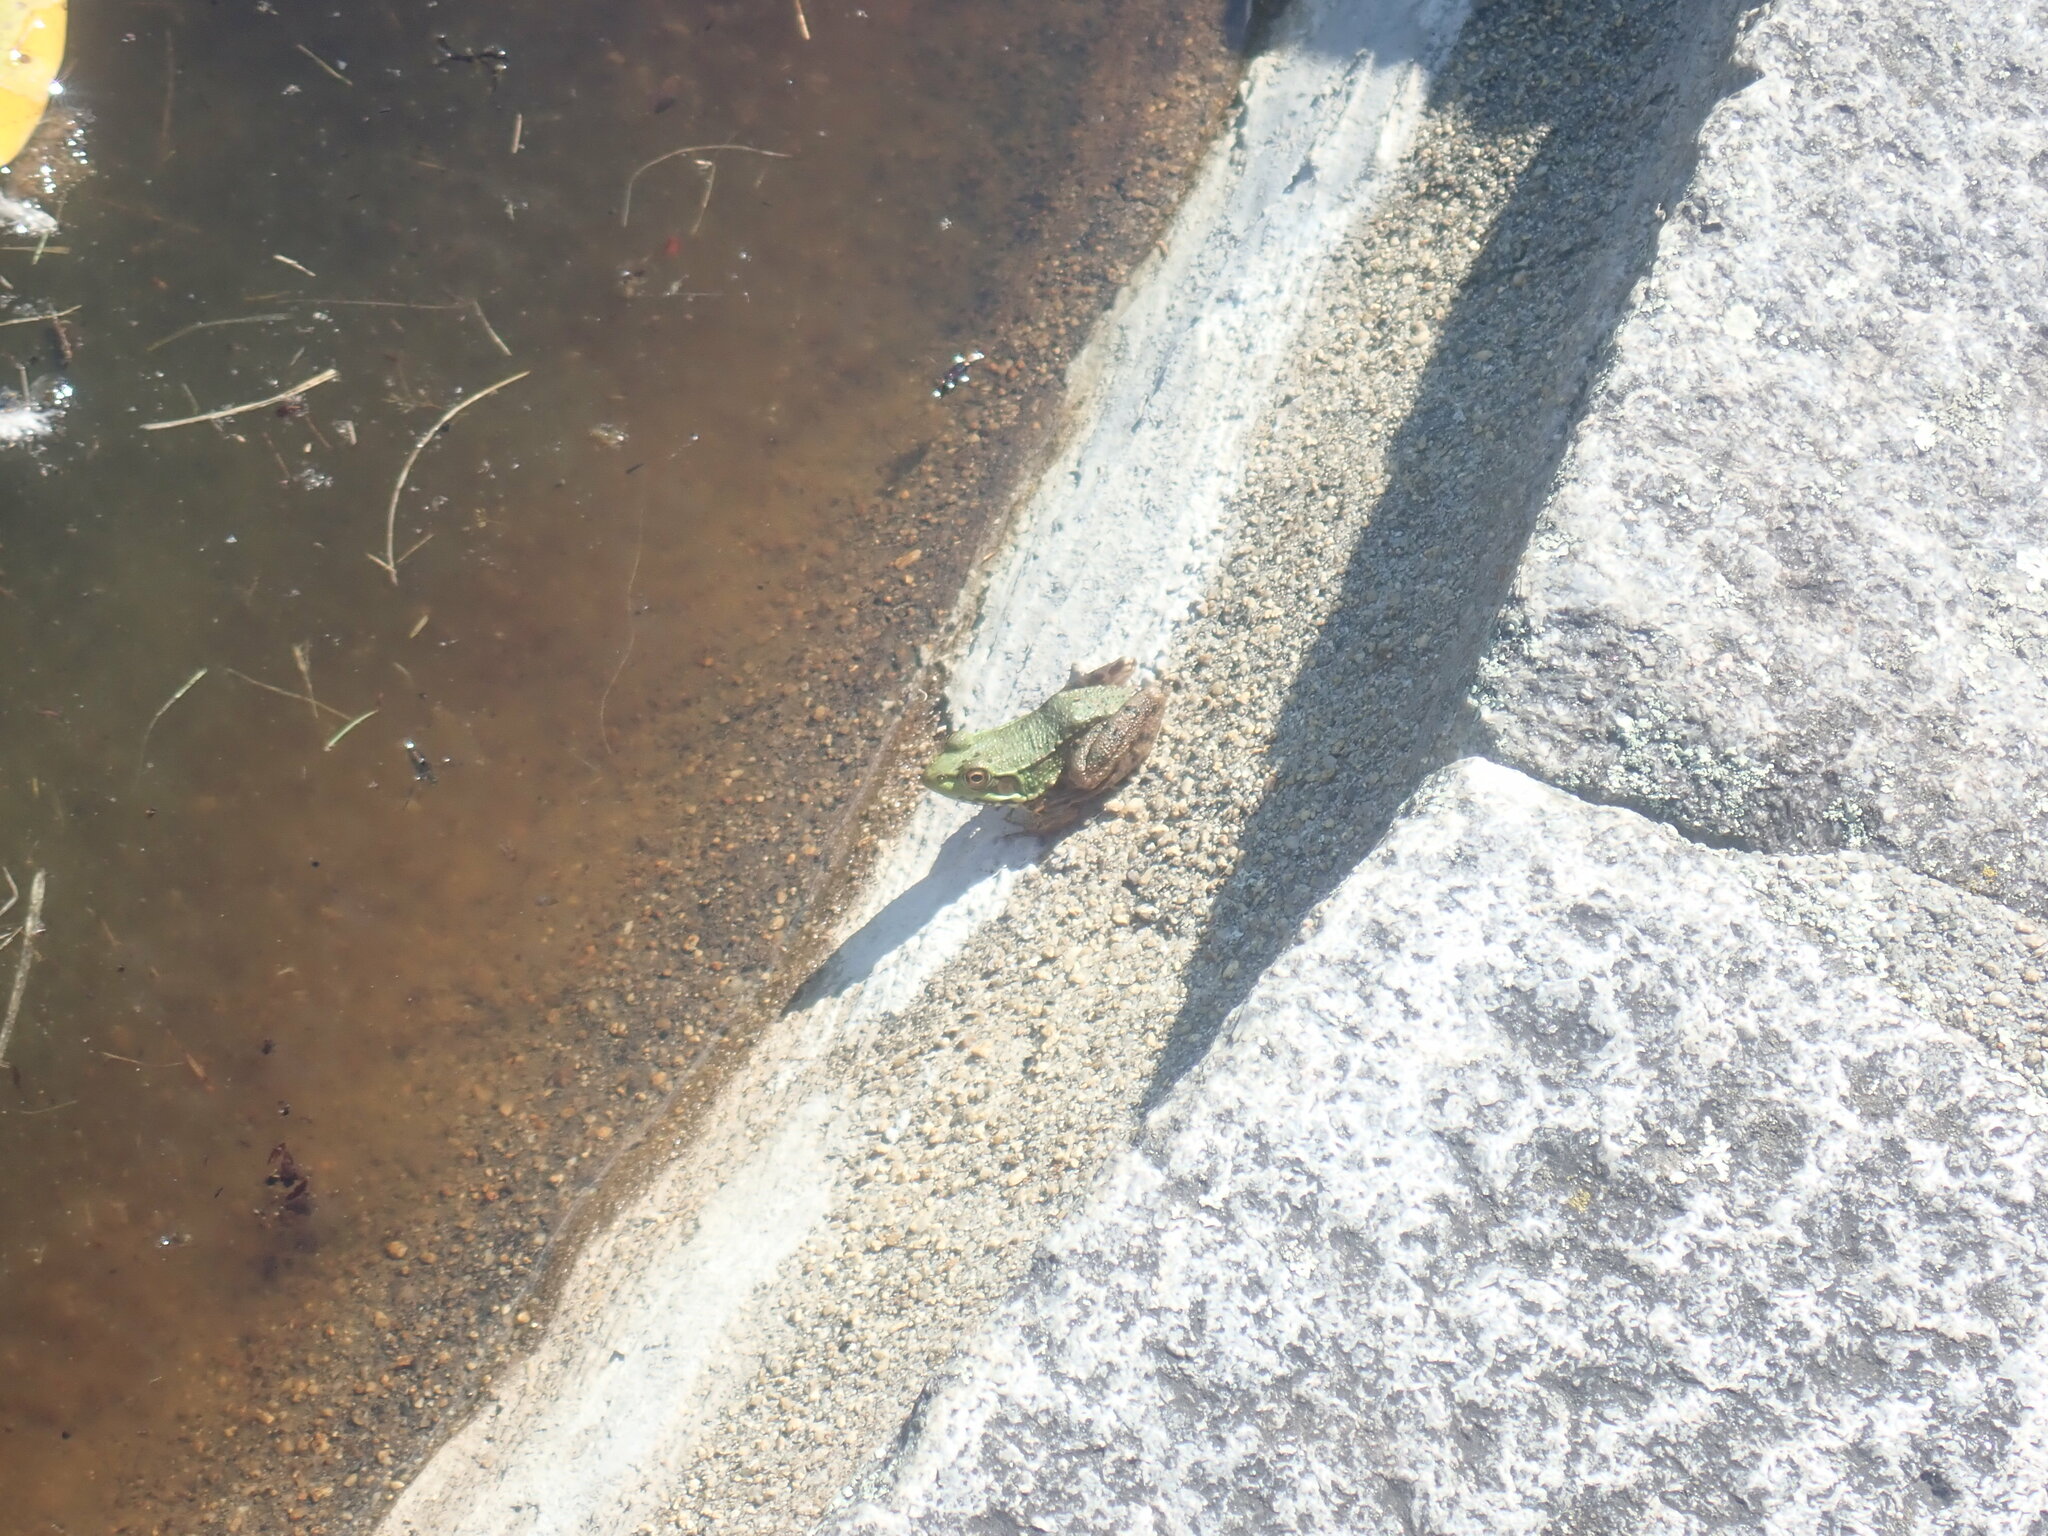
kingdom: Animalia
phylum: Chordata
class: Amphibia
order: Anura
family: Ranidae
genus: Lithobates
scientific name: Lithobates clamitans
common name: Green frog
